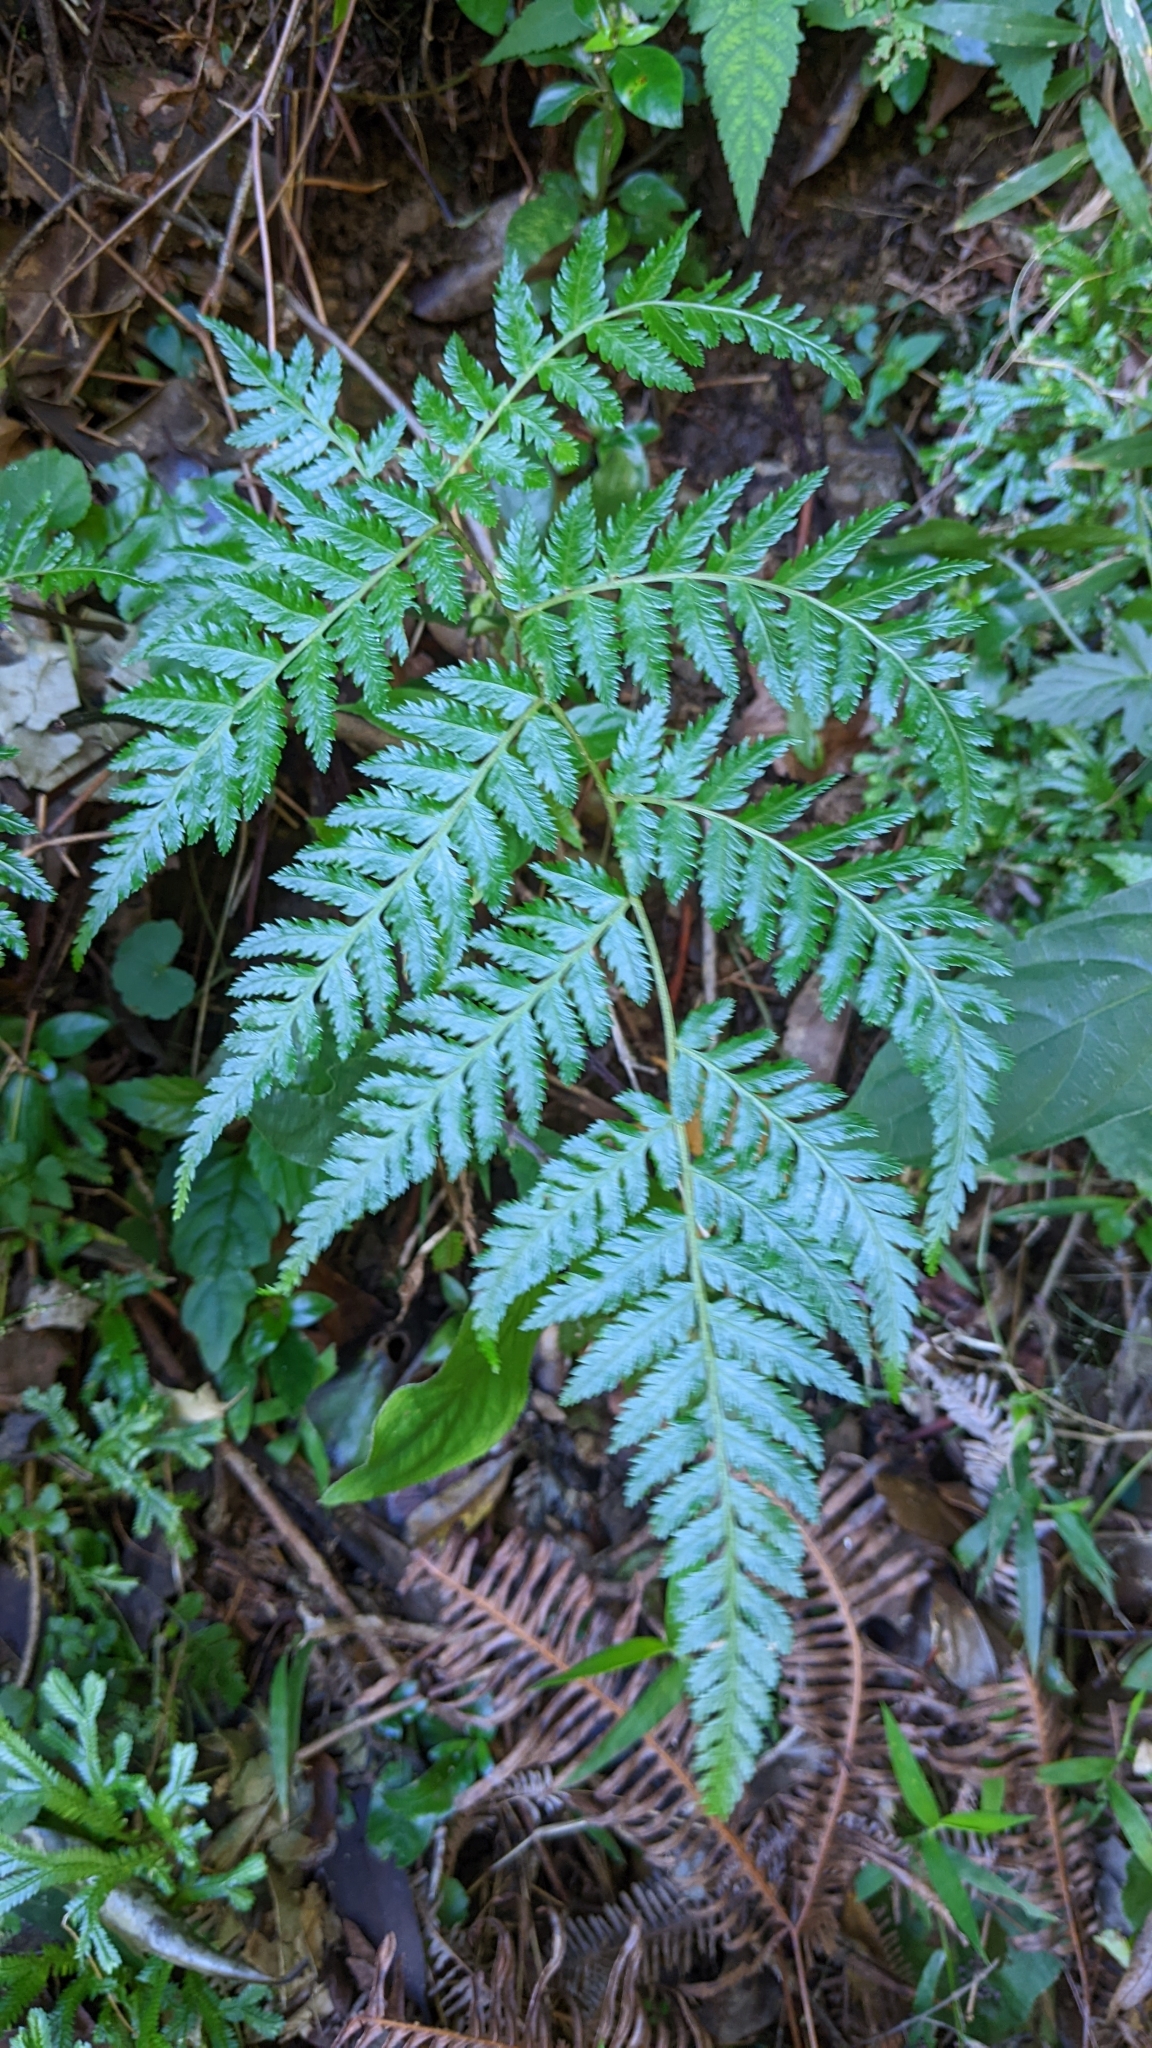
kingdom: Plantae
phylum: Tracheophyta
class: Polypodiopsida
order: Cyatheales
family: Cyatheaceae
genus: Alsophila
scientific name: Alsophila spinulosa
